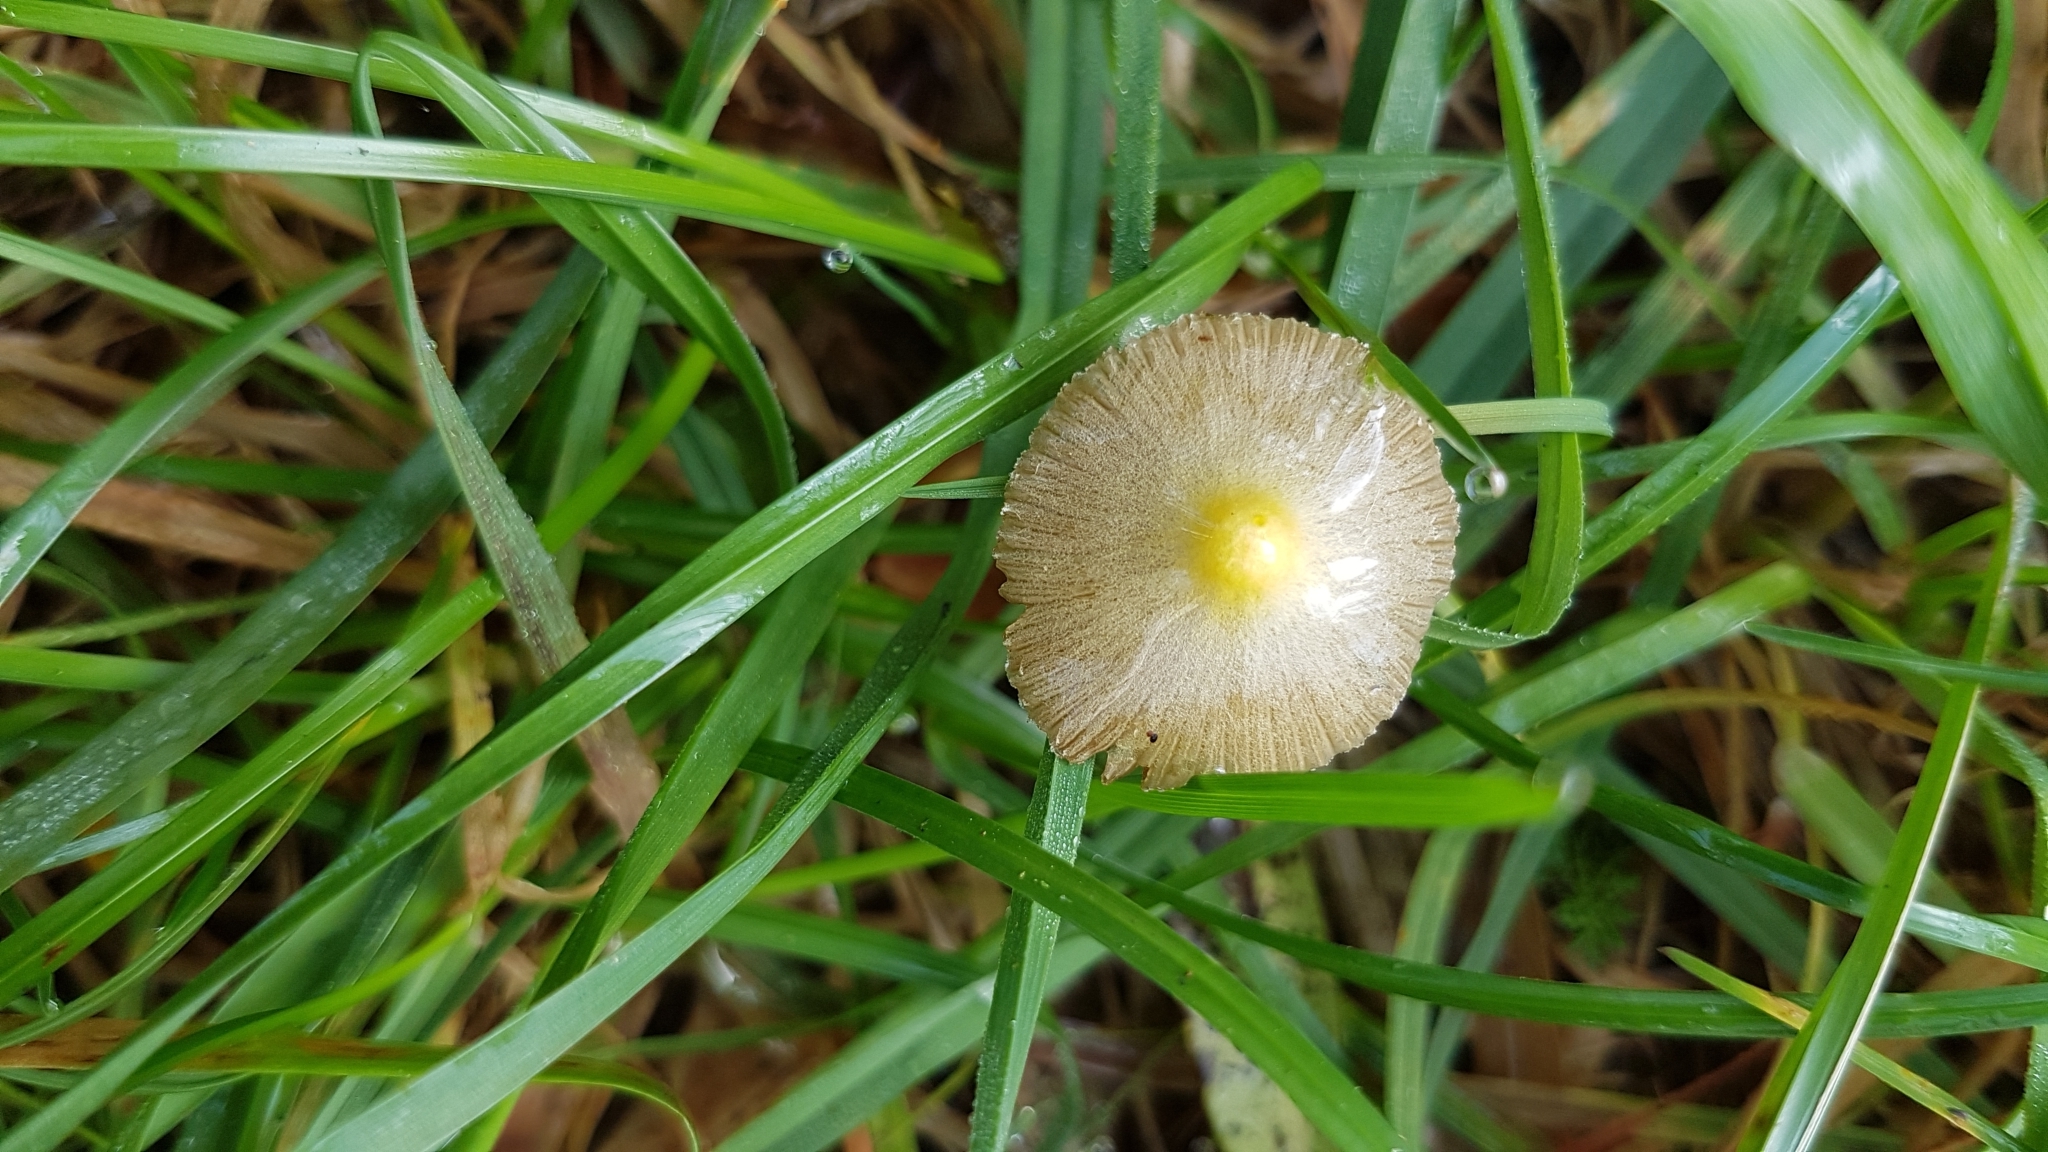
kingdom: Fungi
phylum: Basidiomycota
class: Agaricomycetes
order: Agaricales
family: Bolbitiaceae
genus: Bolbitius
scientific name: Bolbitius titubans
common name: Yellow fieldcap
